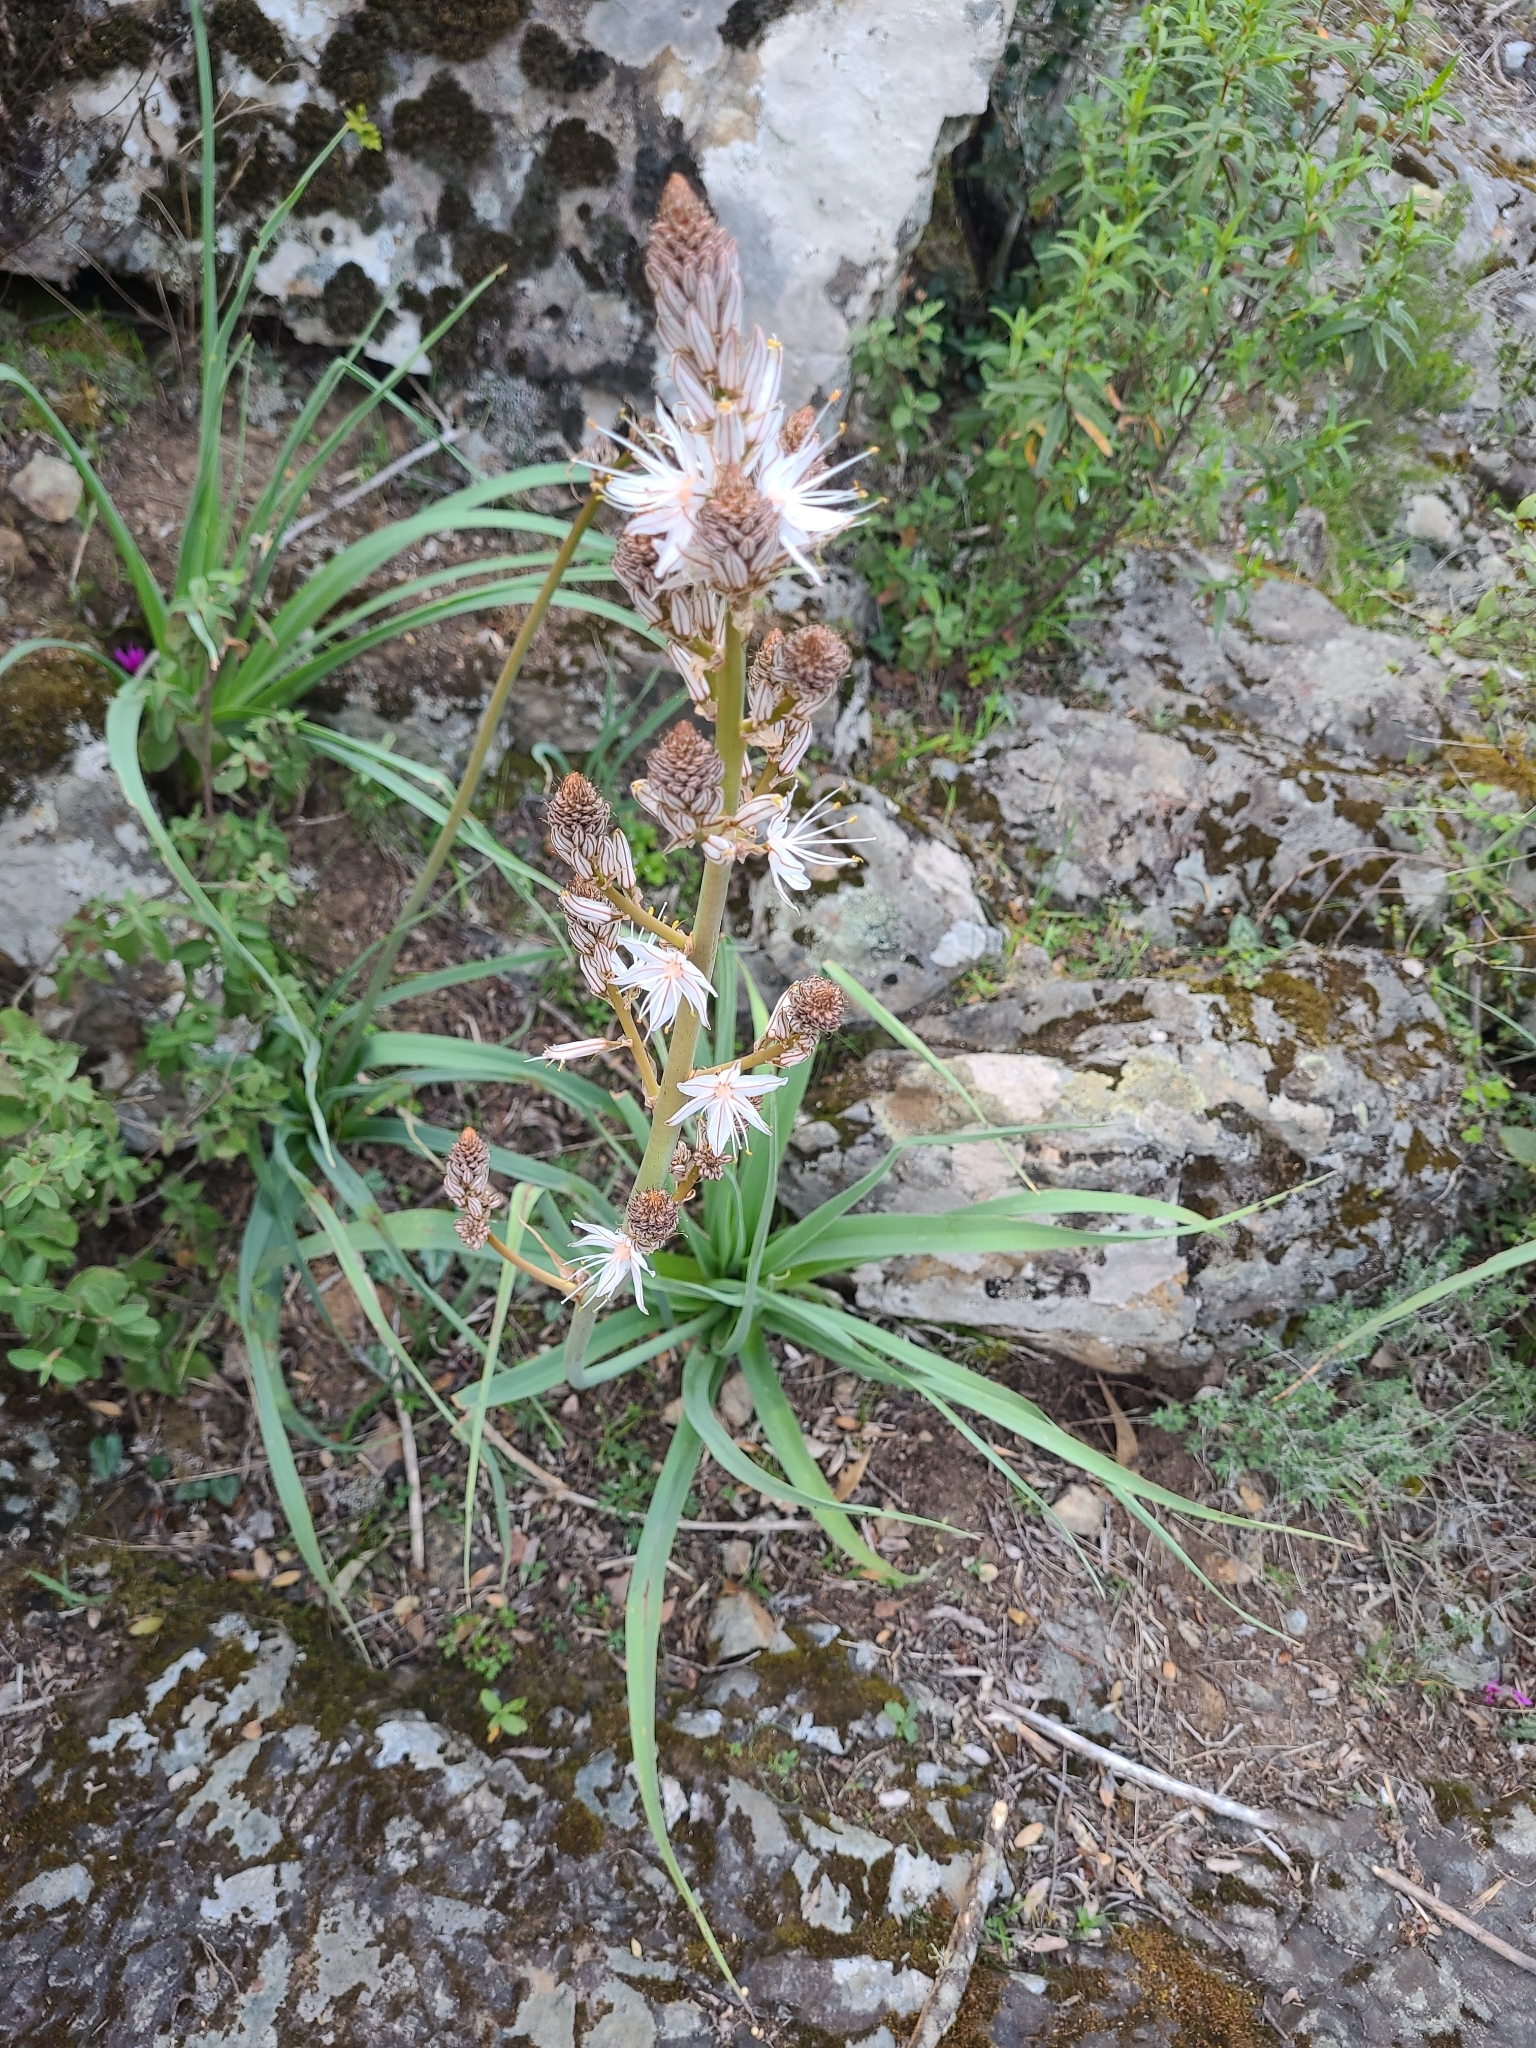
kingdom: Plantae
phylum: Tracheophyta
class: Liliopsida
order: Asparagales
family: Asphodelaceae
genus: Asphodelus
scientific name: Asphodelus ramosus
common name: Silverrod
